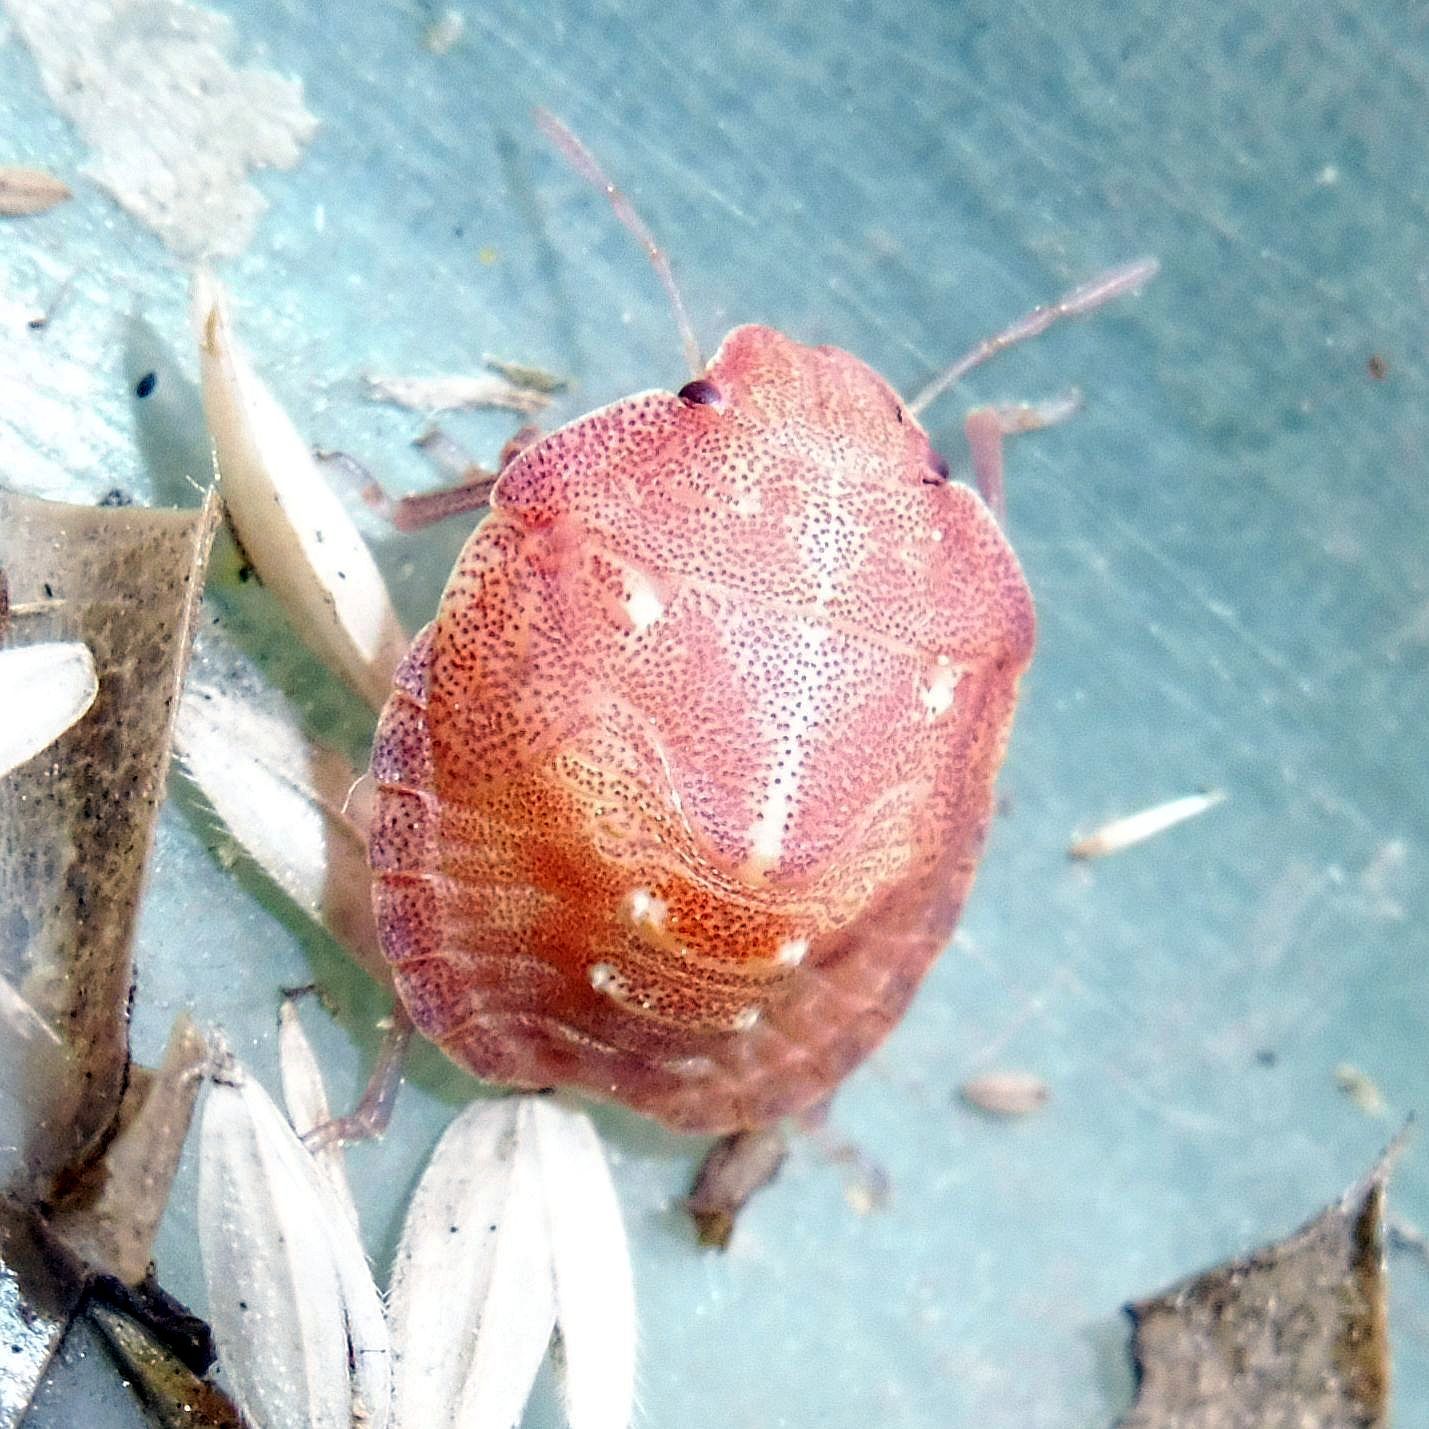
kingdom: Animalia
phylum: Arthropoda
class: Insecta
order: Hemiptera
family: Scutelleridae
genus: Eurygaster
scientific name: Eurygaster testudinaria
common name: Tortoise bug
